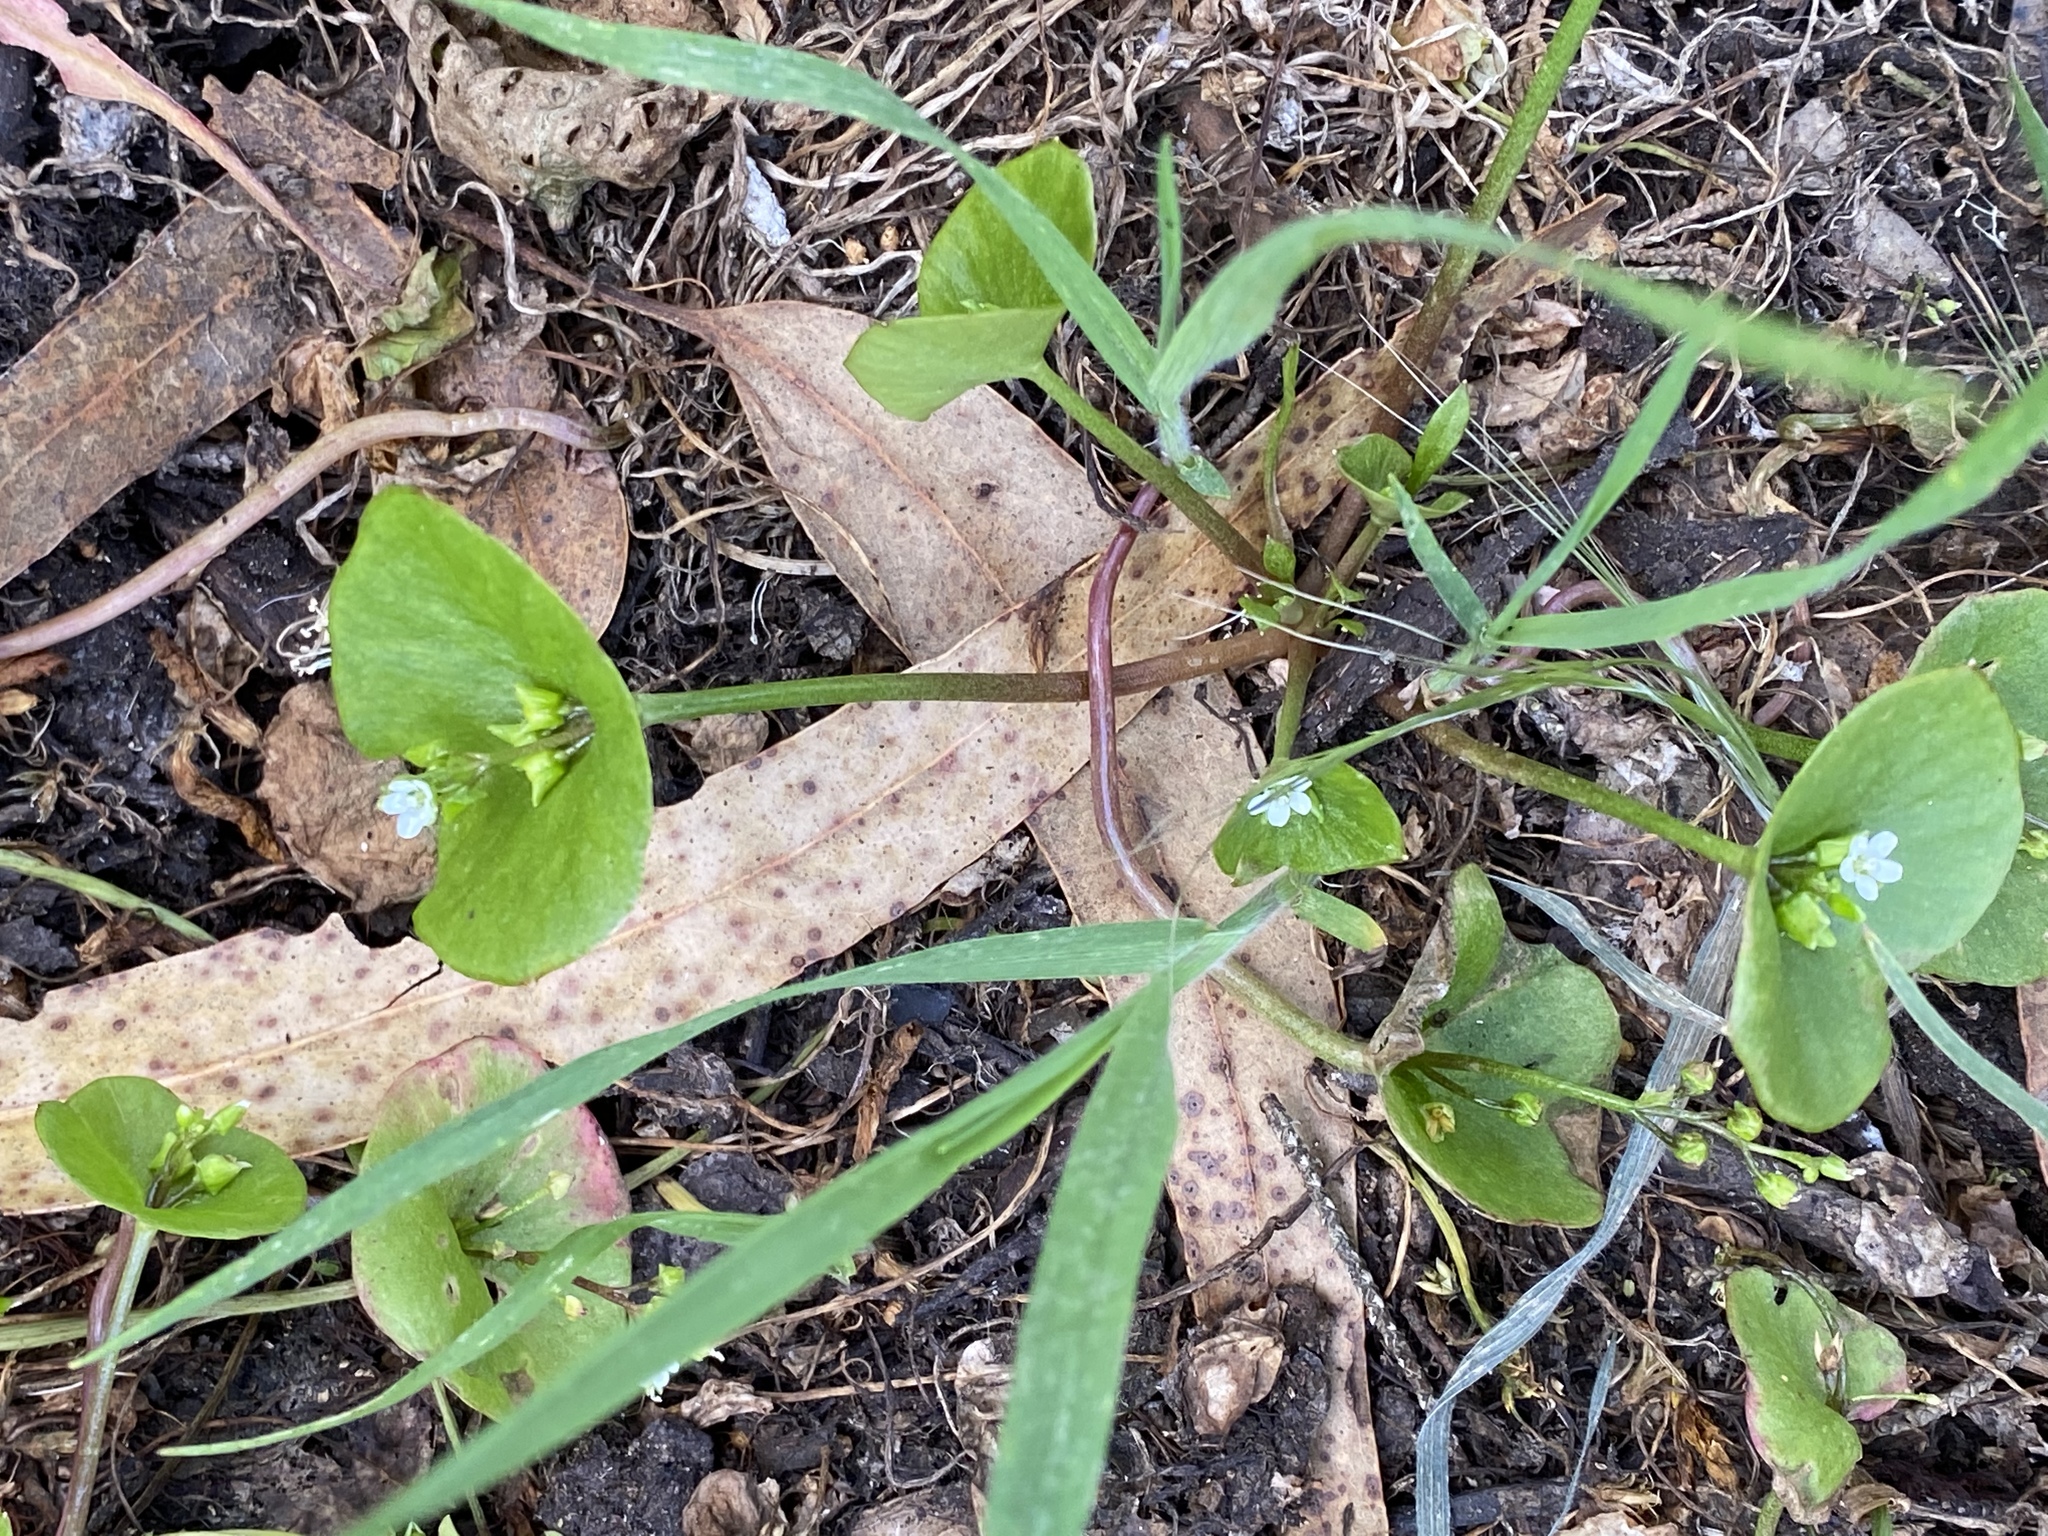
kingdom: Plantae
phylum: Tracheophyta
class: Magnoliopsida
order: Caryophyllales
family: Montiaceae
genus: Claytonia
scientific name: Claytonia perfoliata
